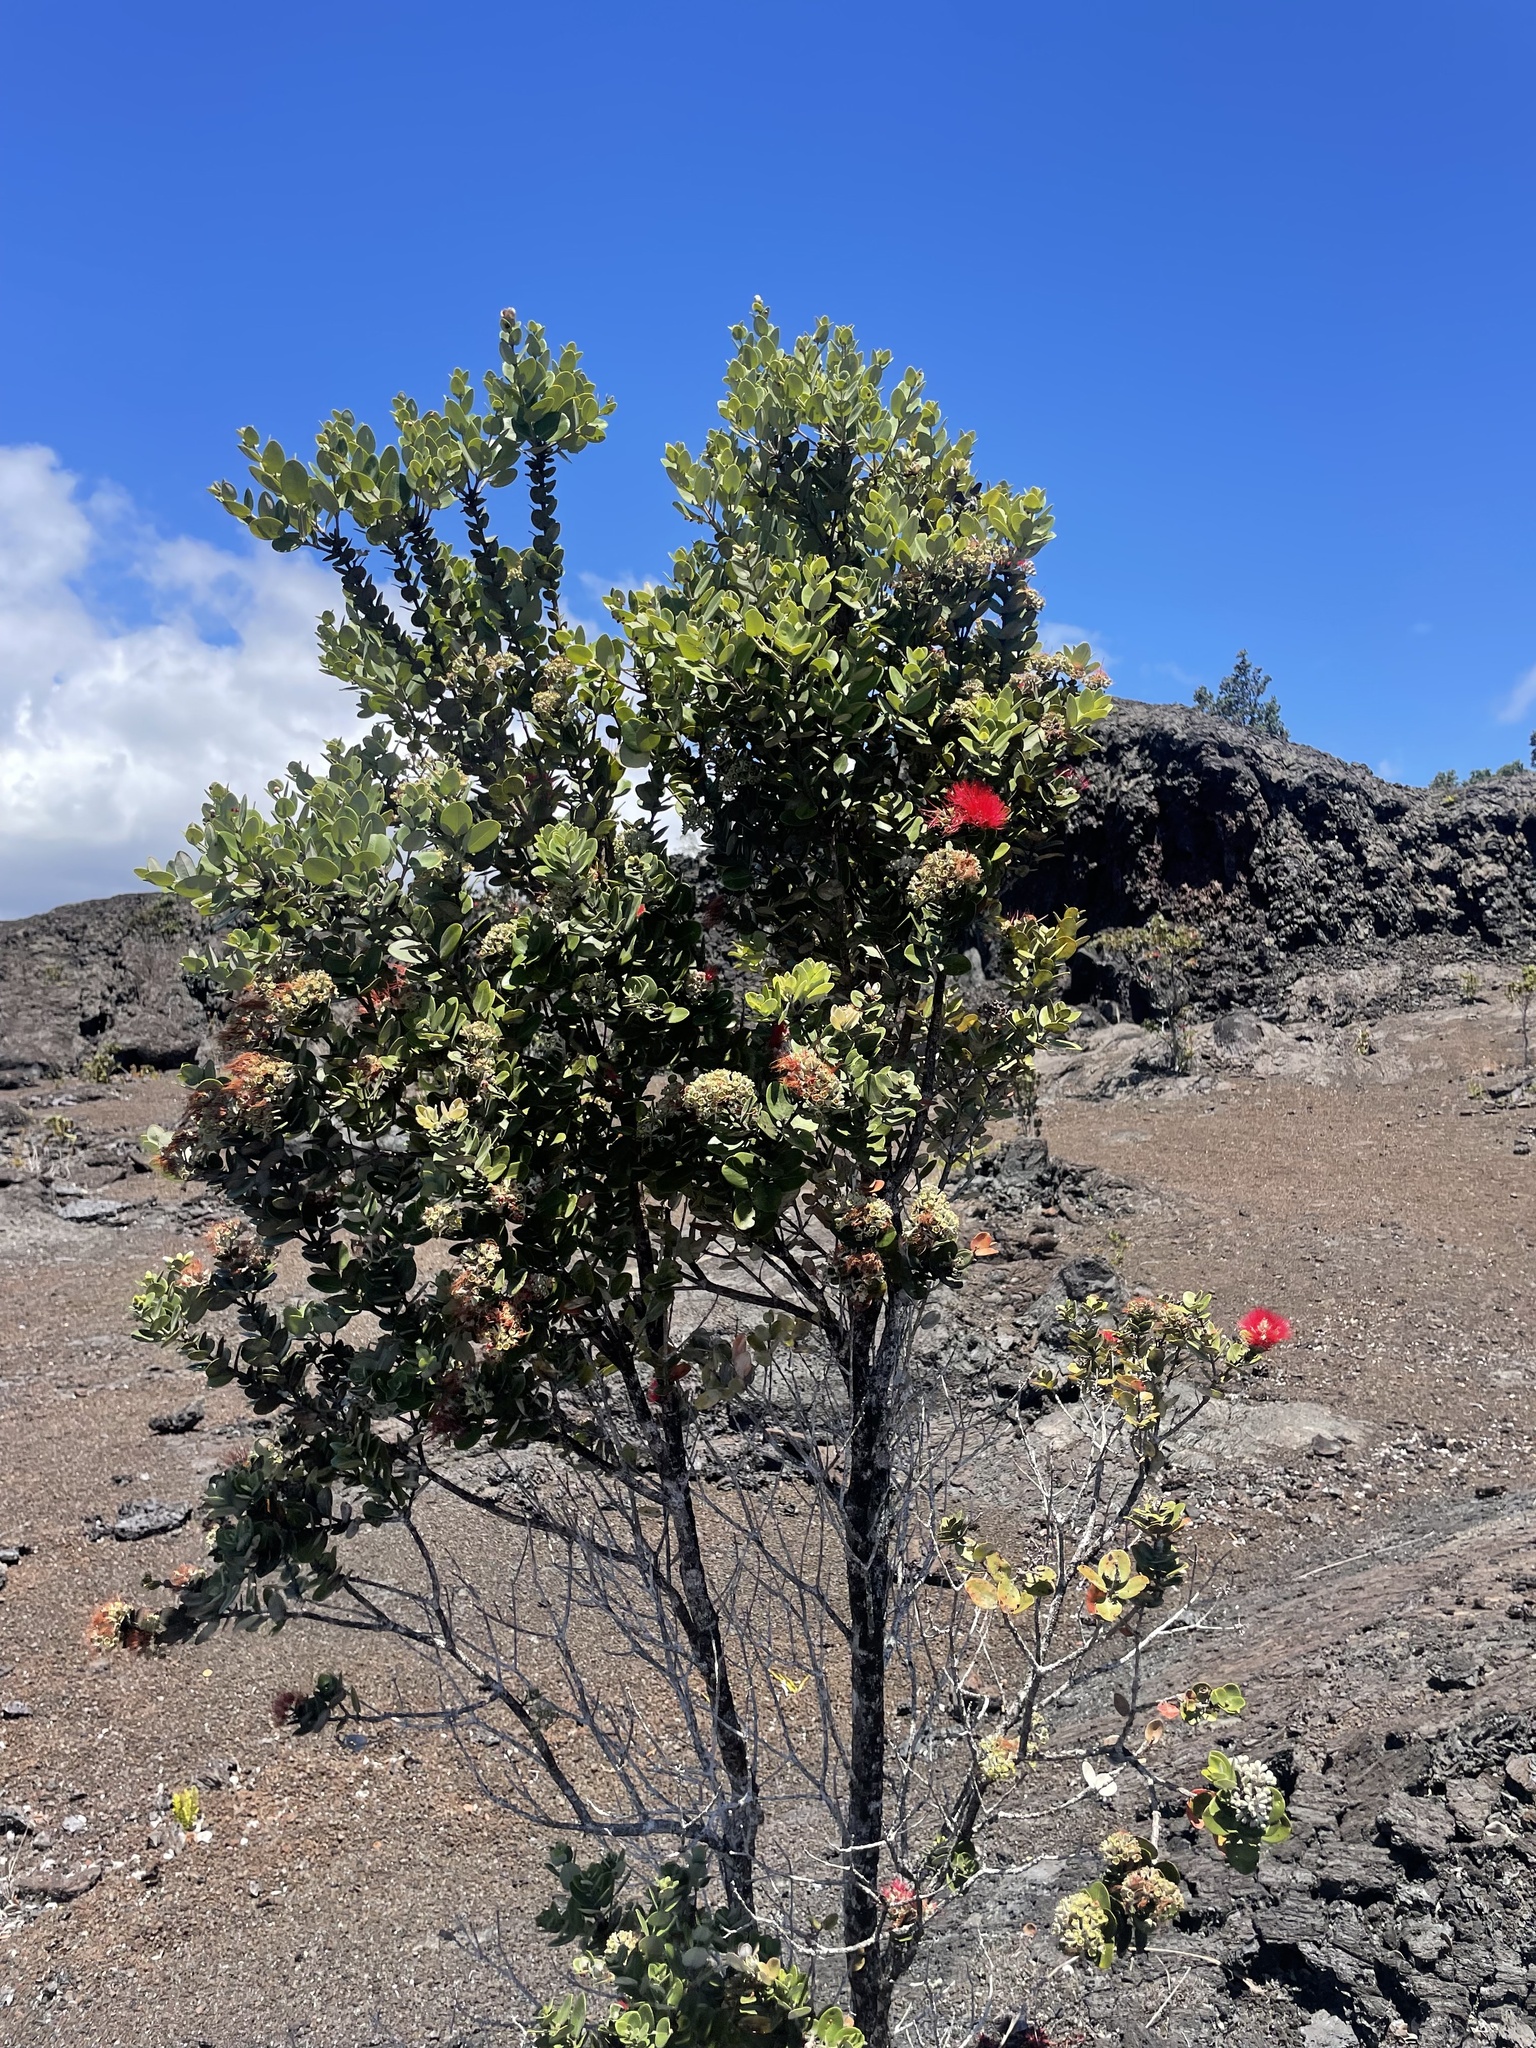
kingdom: Plantae
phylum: Tracheophyta
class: Magnoliopsida
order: Myrtales
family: Myrtaceae
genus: Metrosideros
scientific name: Metrosideros polymorpha
